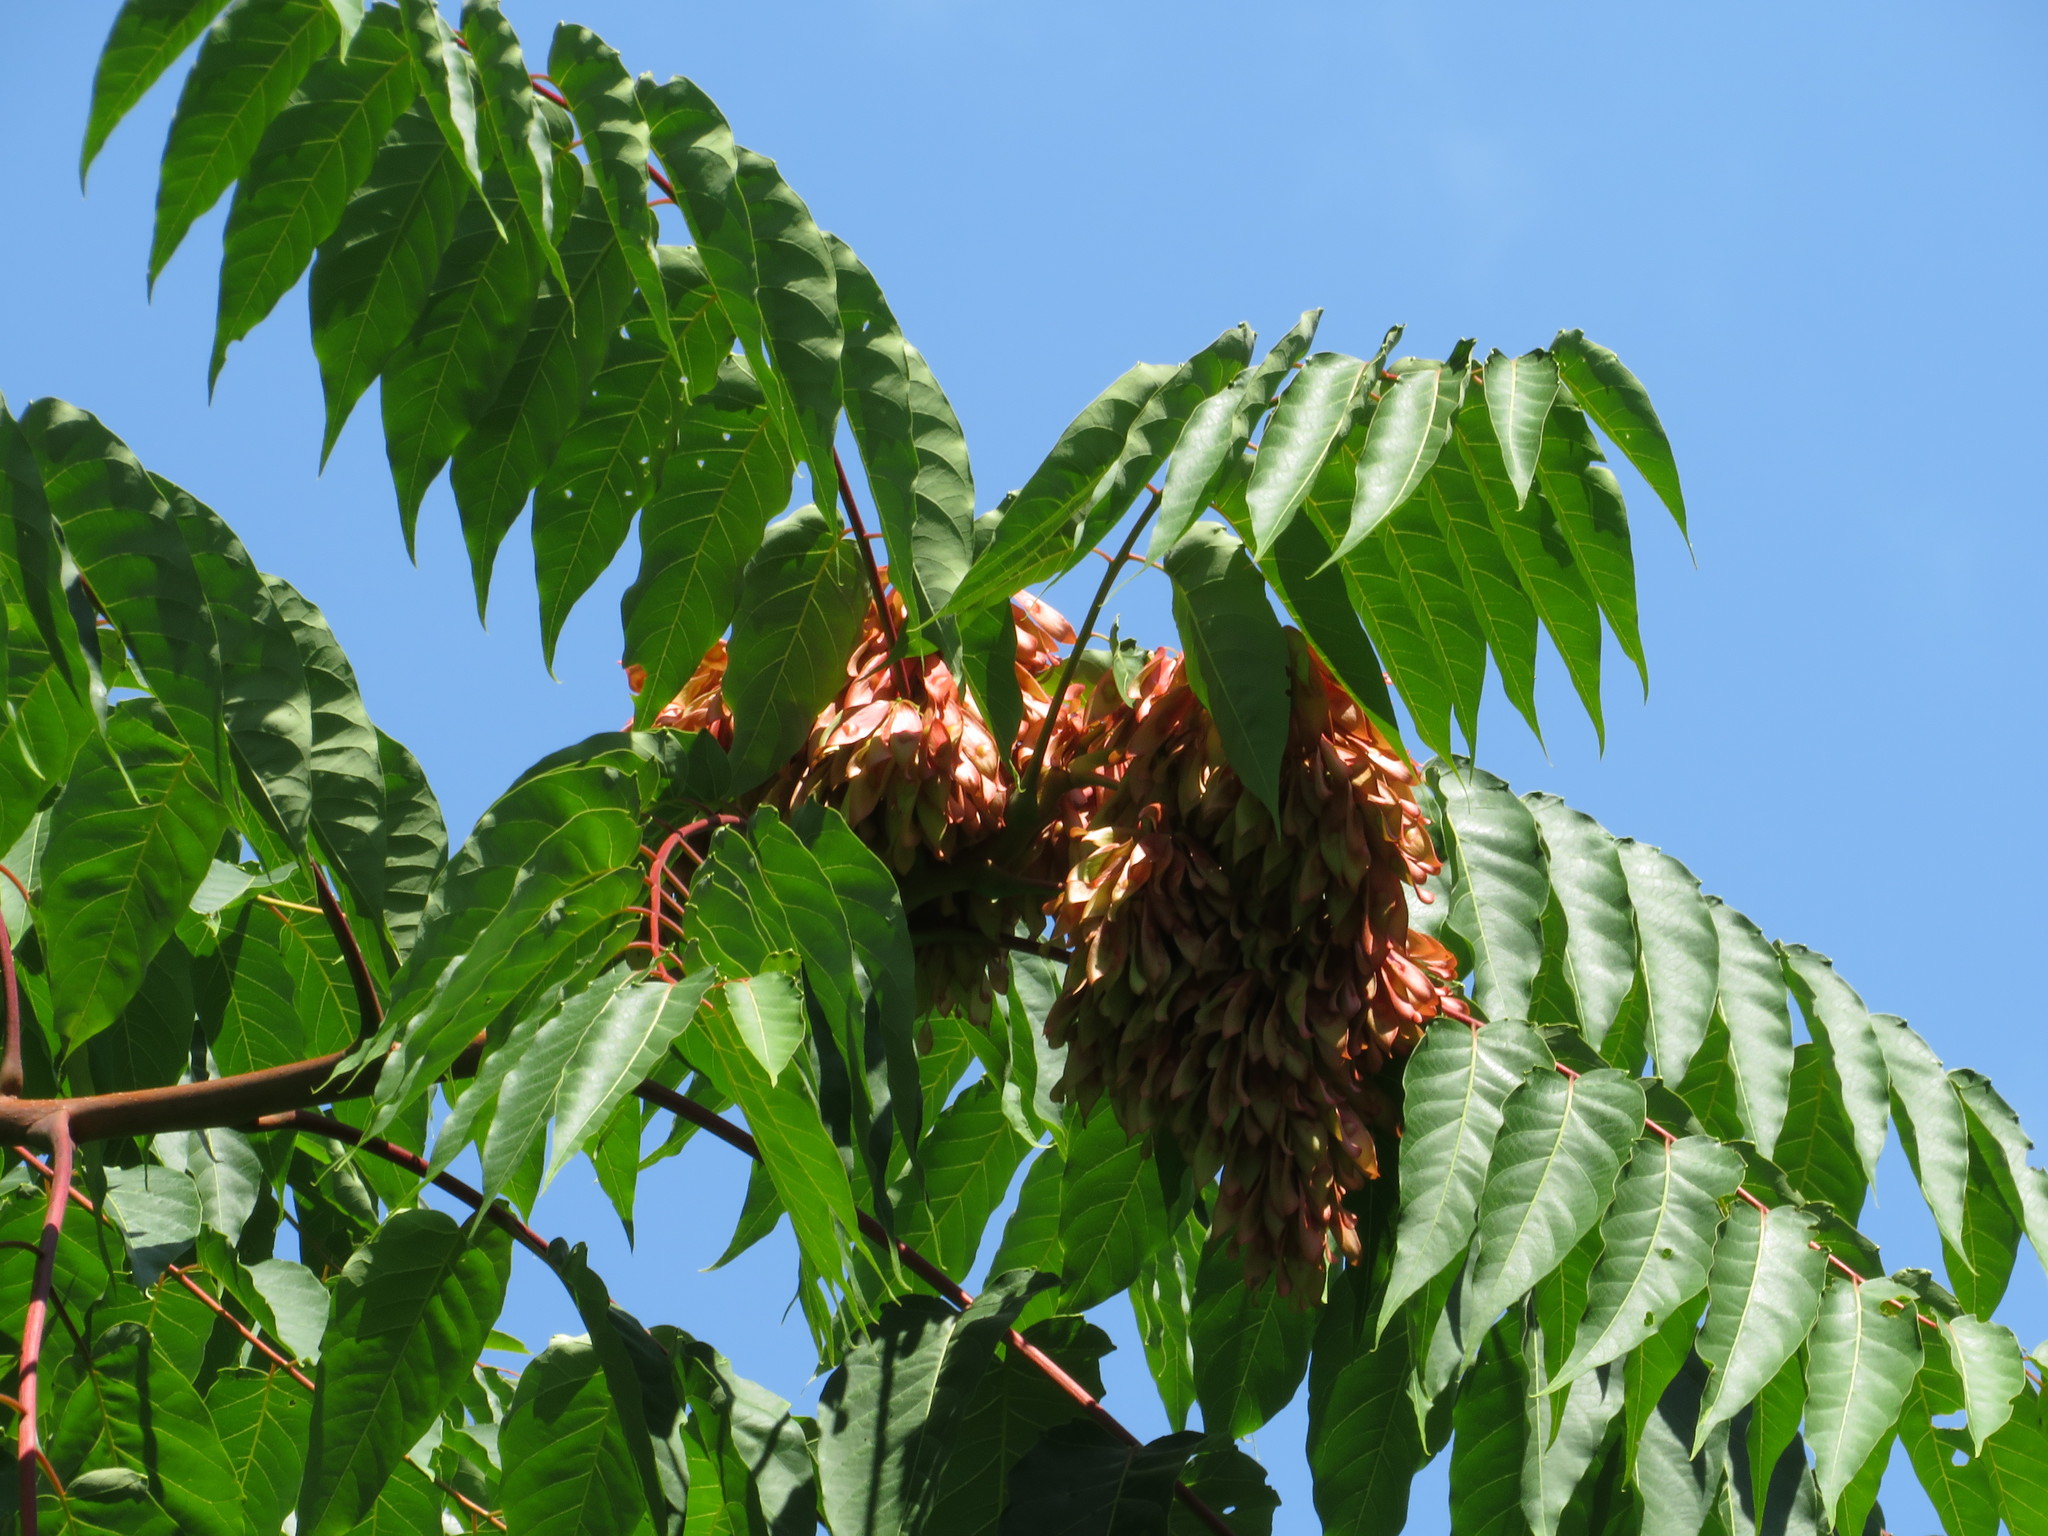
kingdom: Plantae
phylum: Tracheophyta
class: Magnoliopsida
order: Sapindales
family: Simaroubaceae
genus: Ailanthus
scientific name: Ailanthus altissima
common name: Tree-of-heaven
